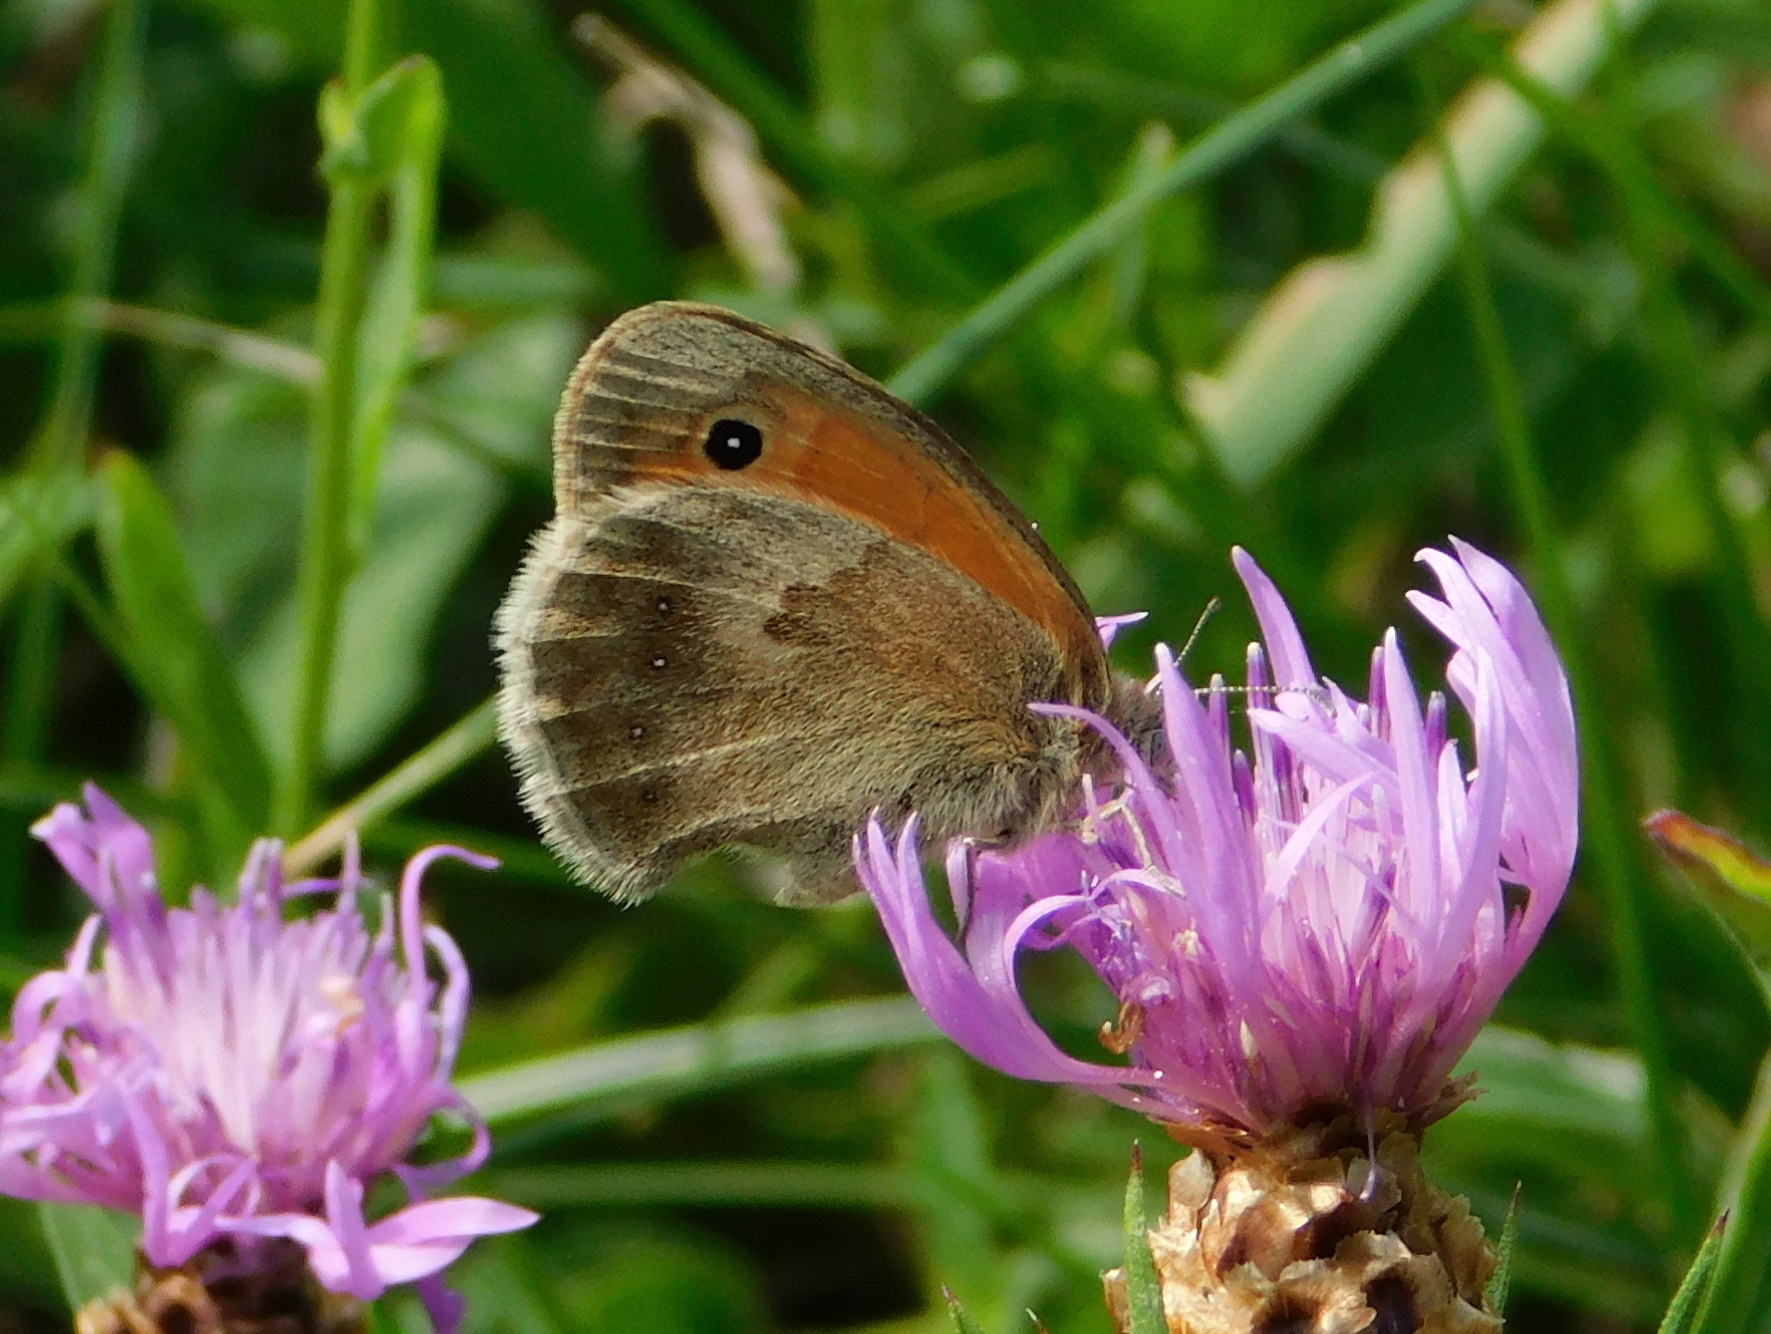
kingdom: Animalia
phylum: Arthropoda
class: Insecta
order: Lepidoptera
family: Nymphalidae
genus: Coenonympha
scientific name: Coenonympha pamphilus
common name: Small heath
